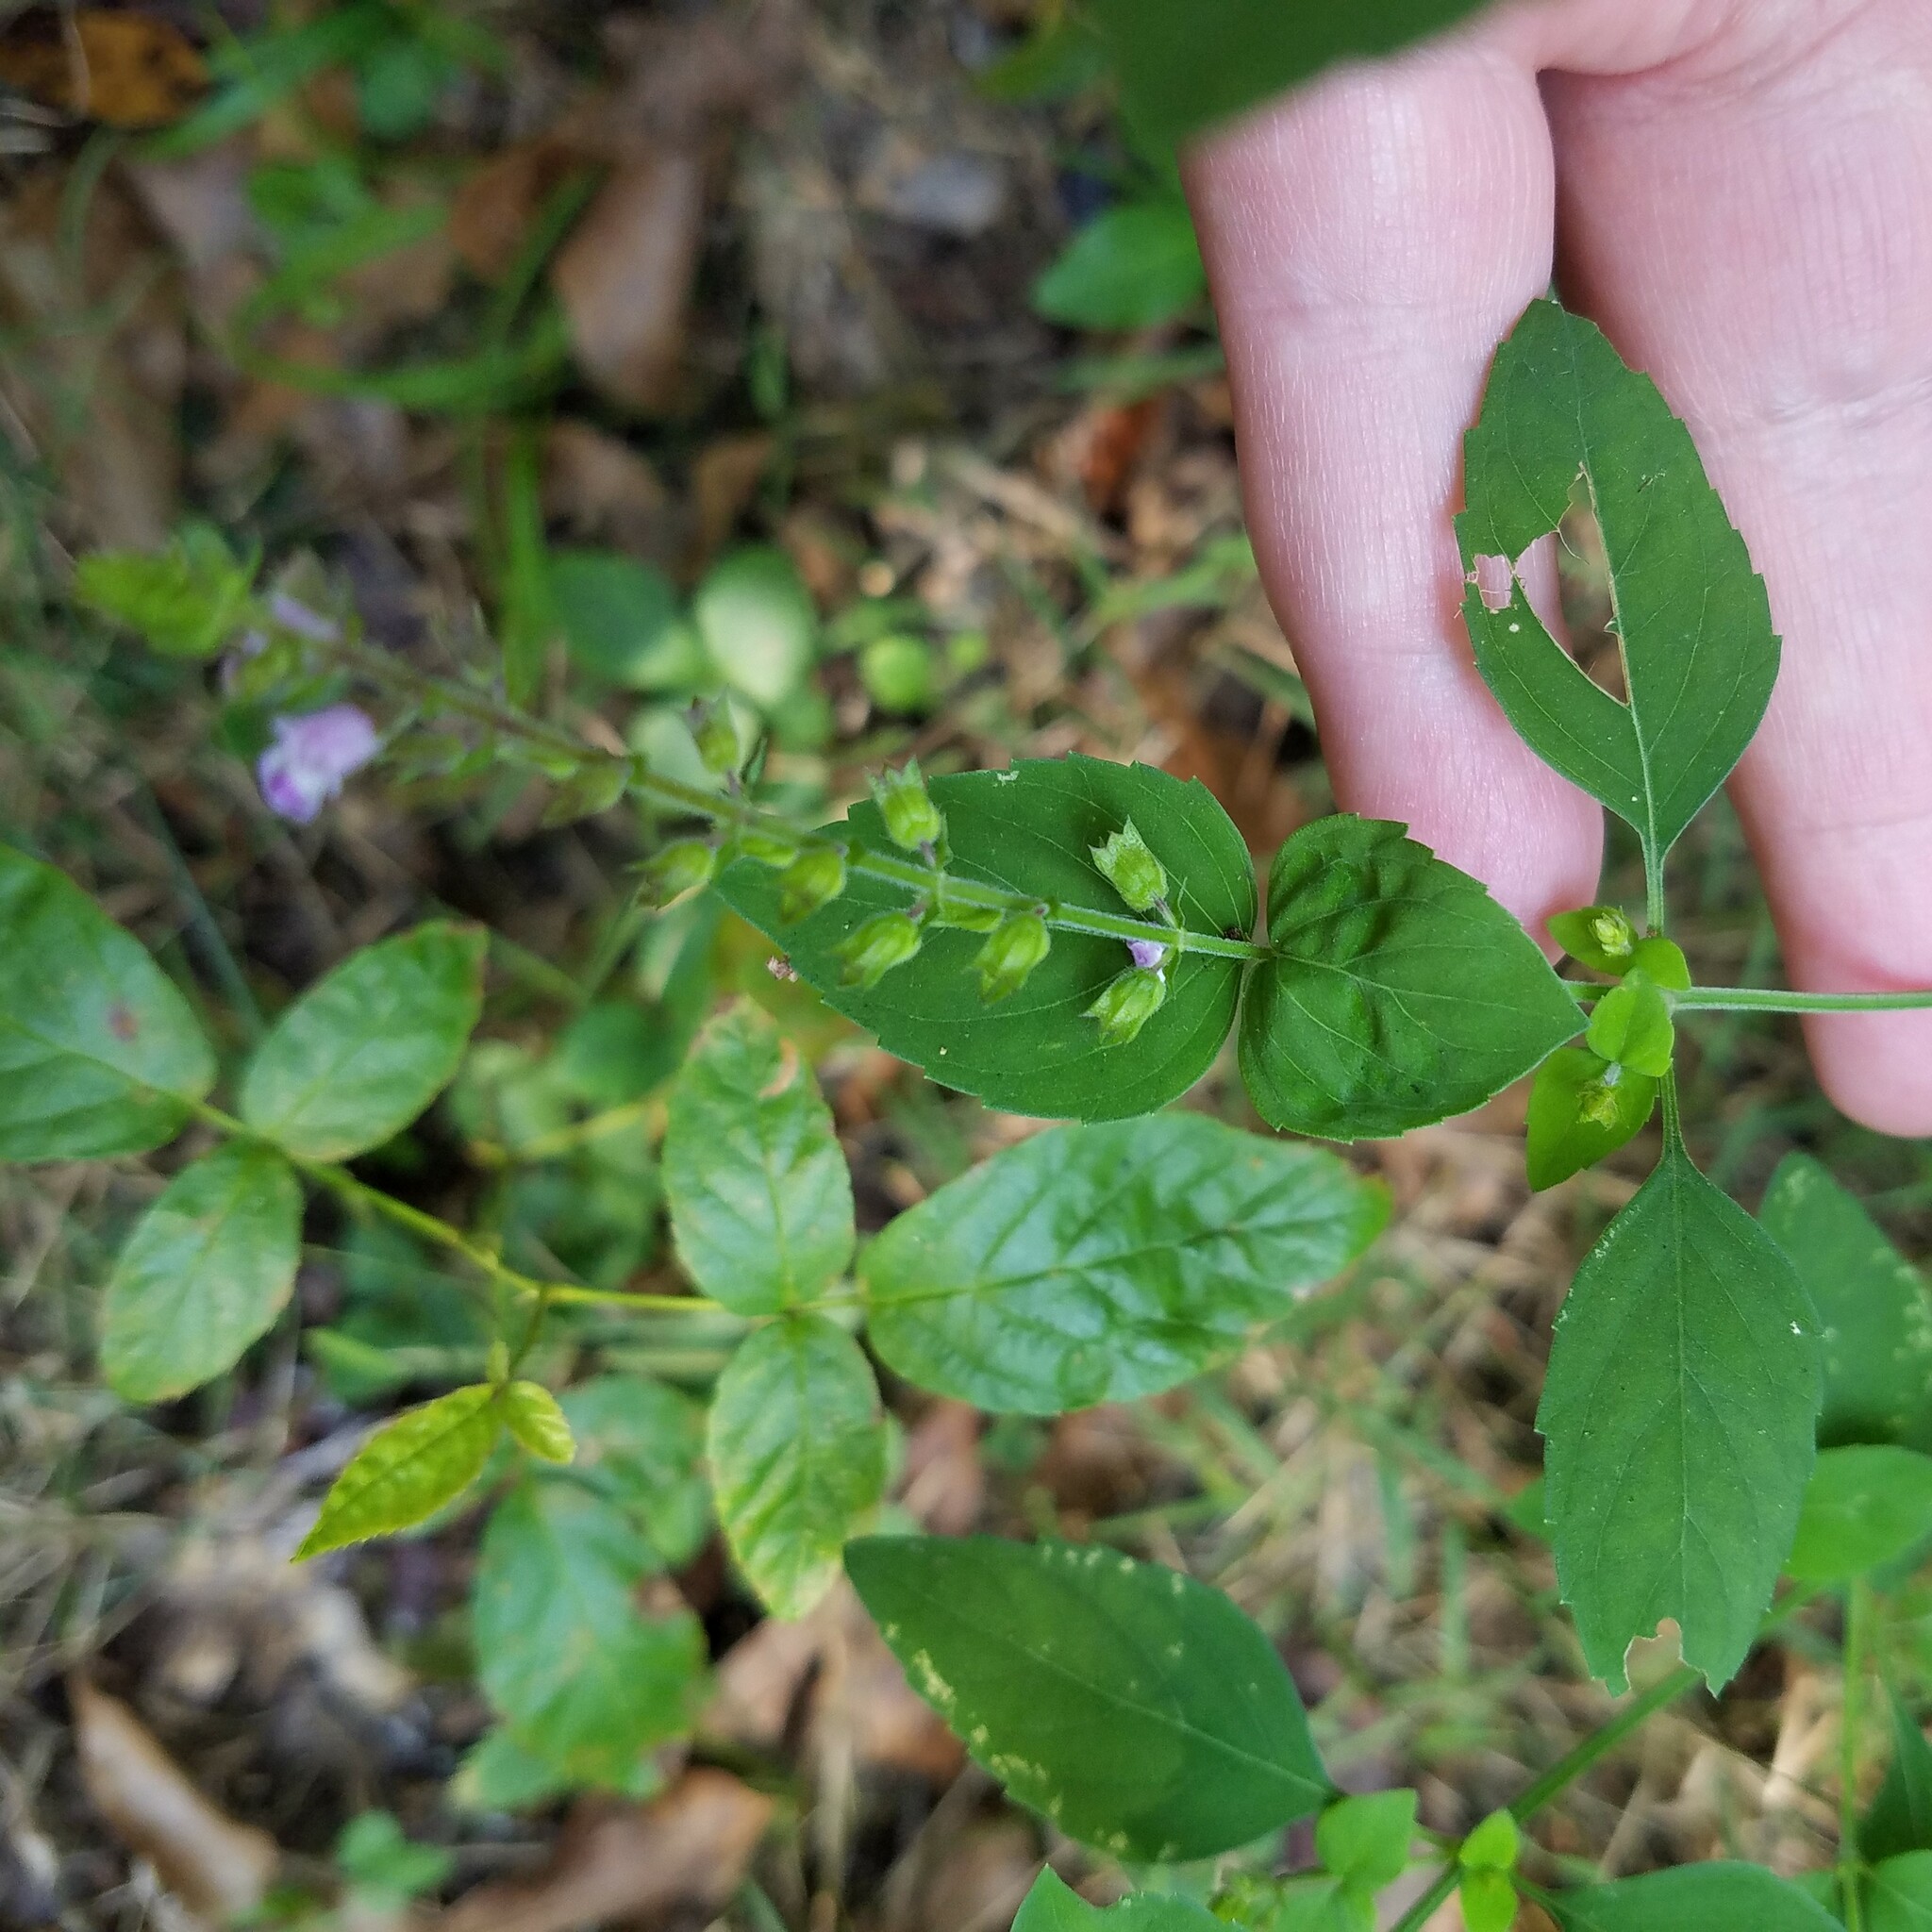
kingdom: Plantae
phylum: Tracheophyta
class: Magnoliopsida
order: Lamiales
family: Lamiaceae
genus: Mosla
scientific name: Mosla dianthera
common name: Miniature beefsteakplant
